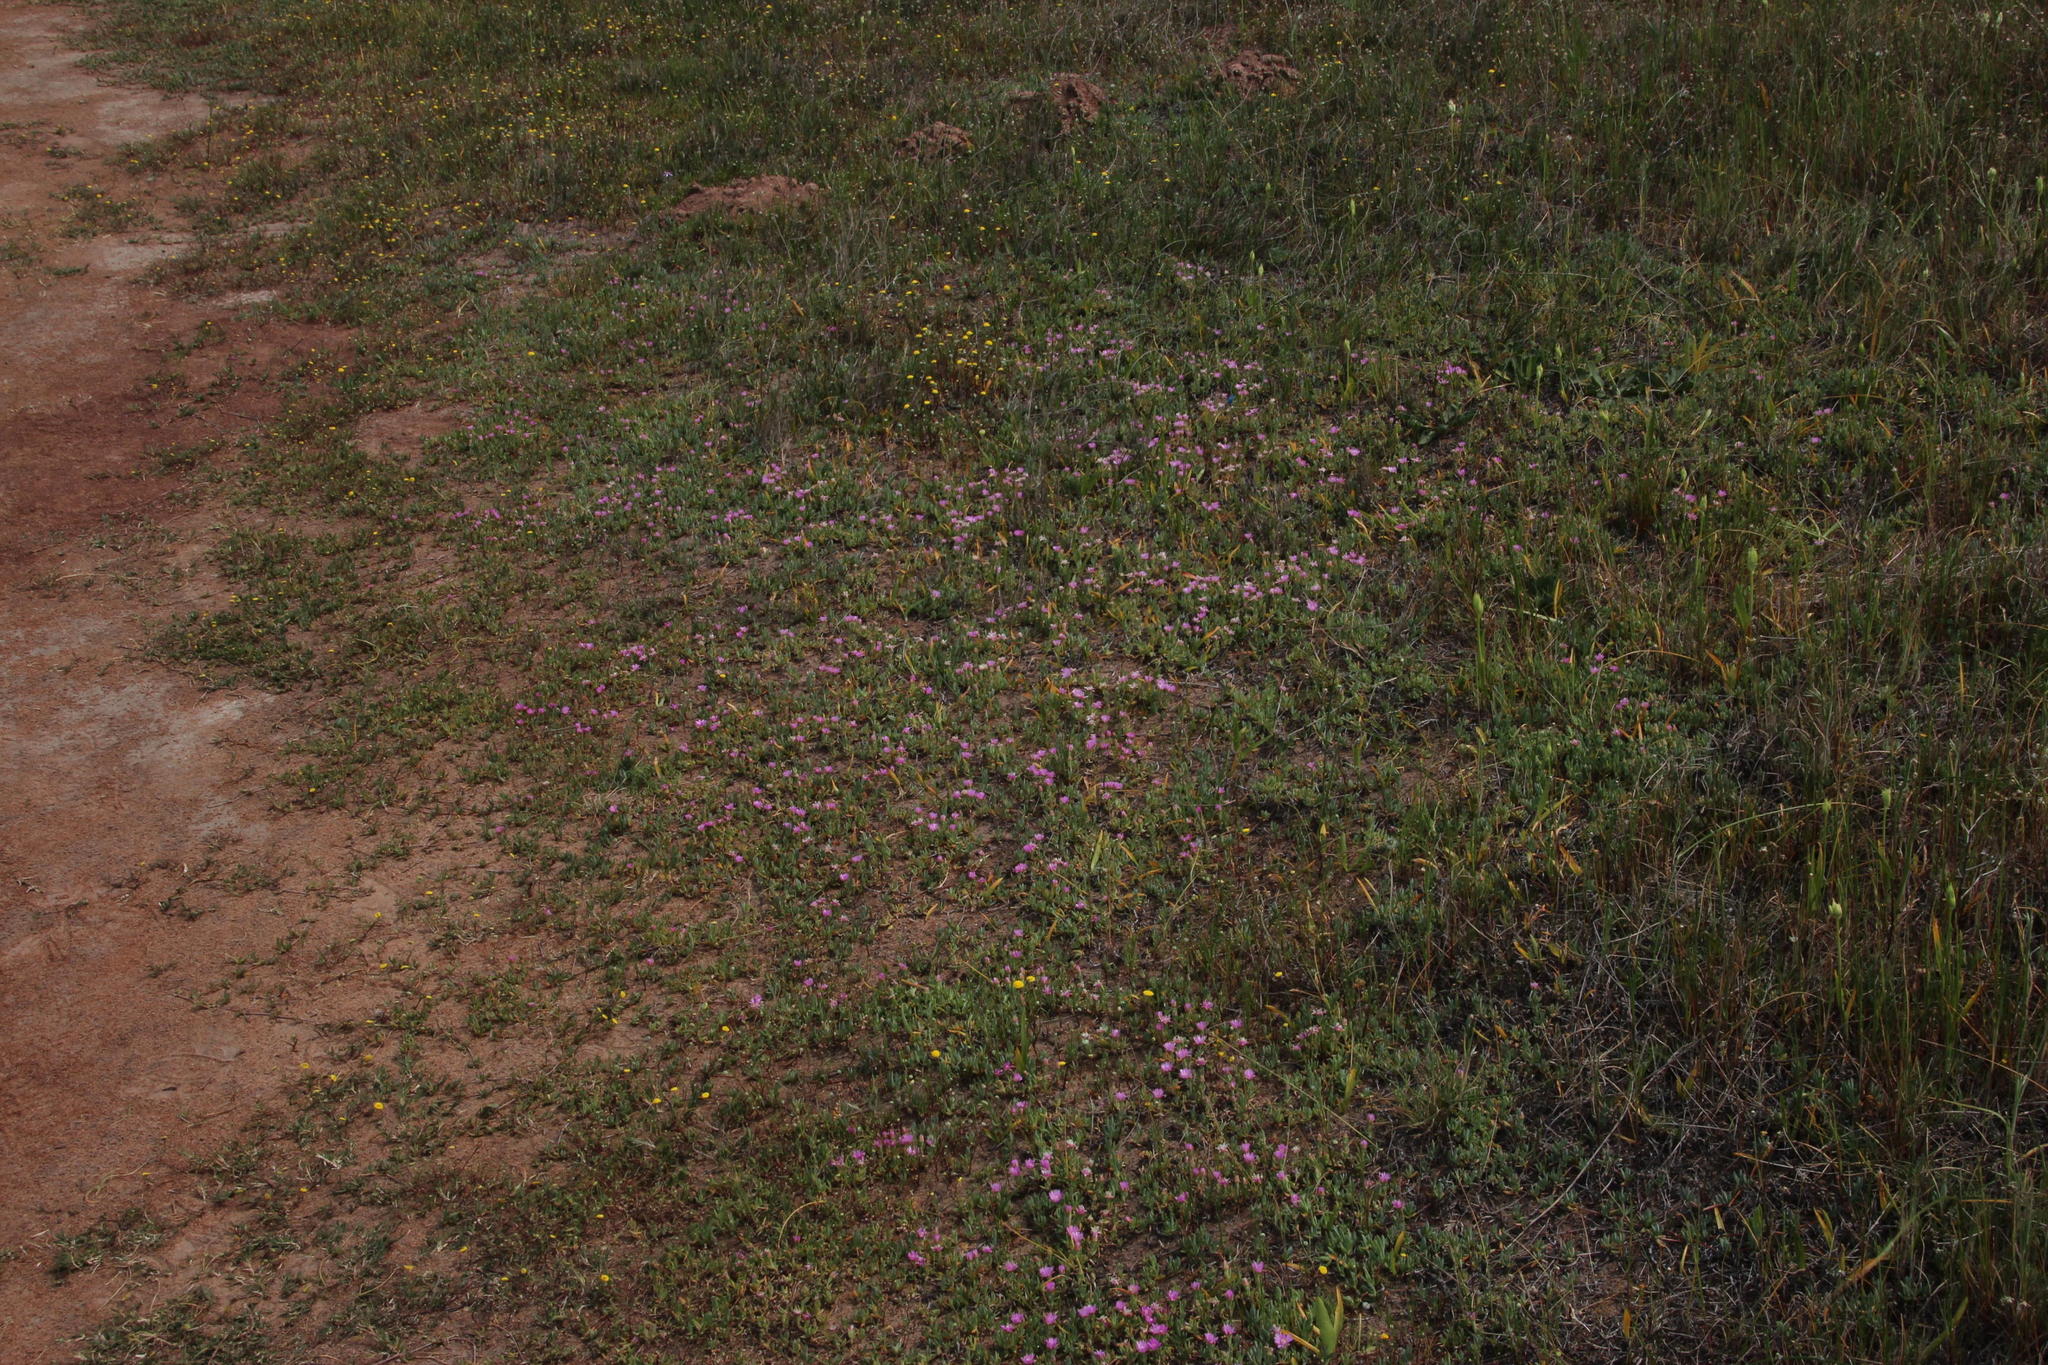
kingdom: Plantae
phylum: Tracheophyta
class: Magnoliopsida
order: Caryophyllales
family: Aizoaceae
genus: Lampranthus
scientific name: Lampranthus debilis
